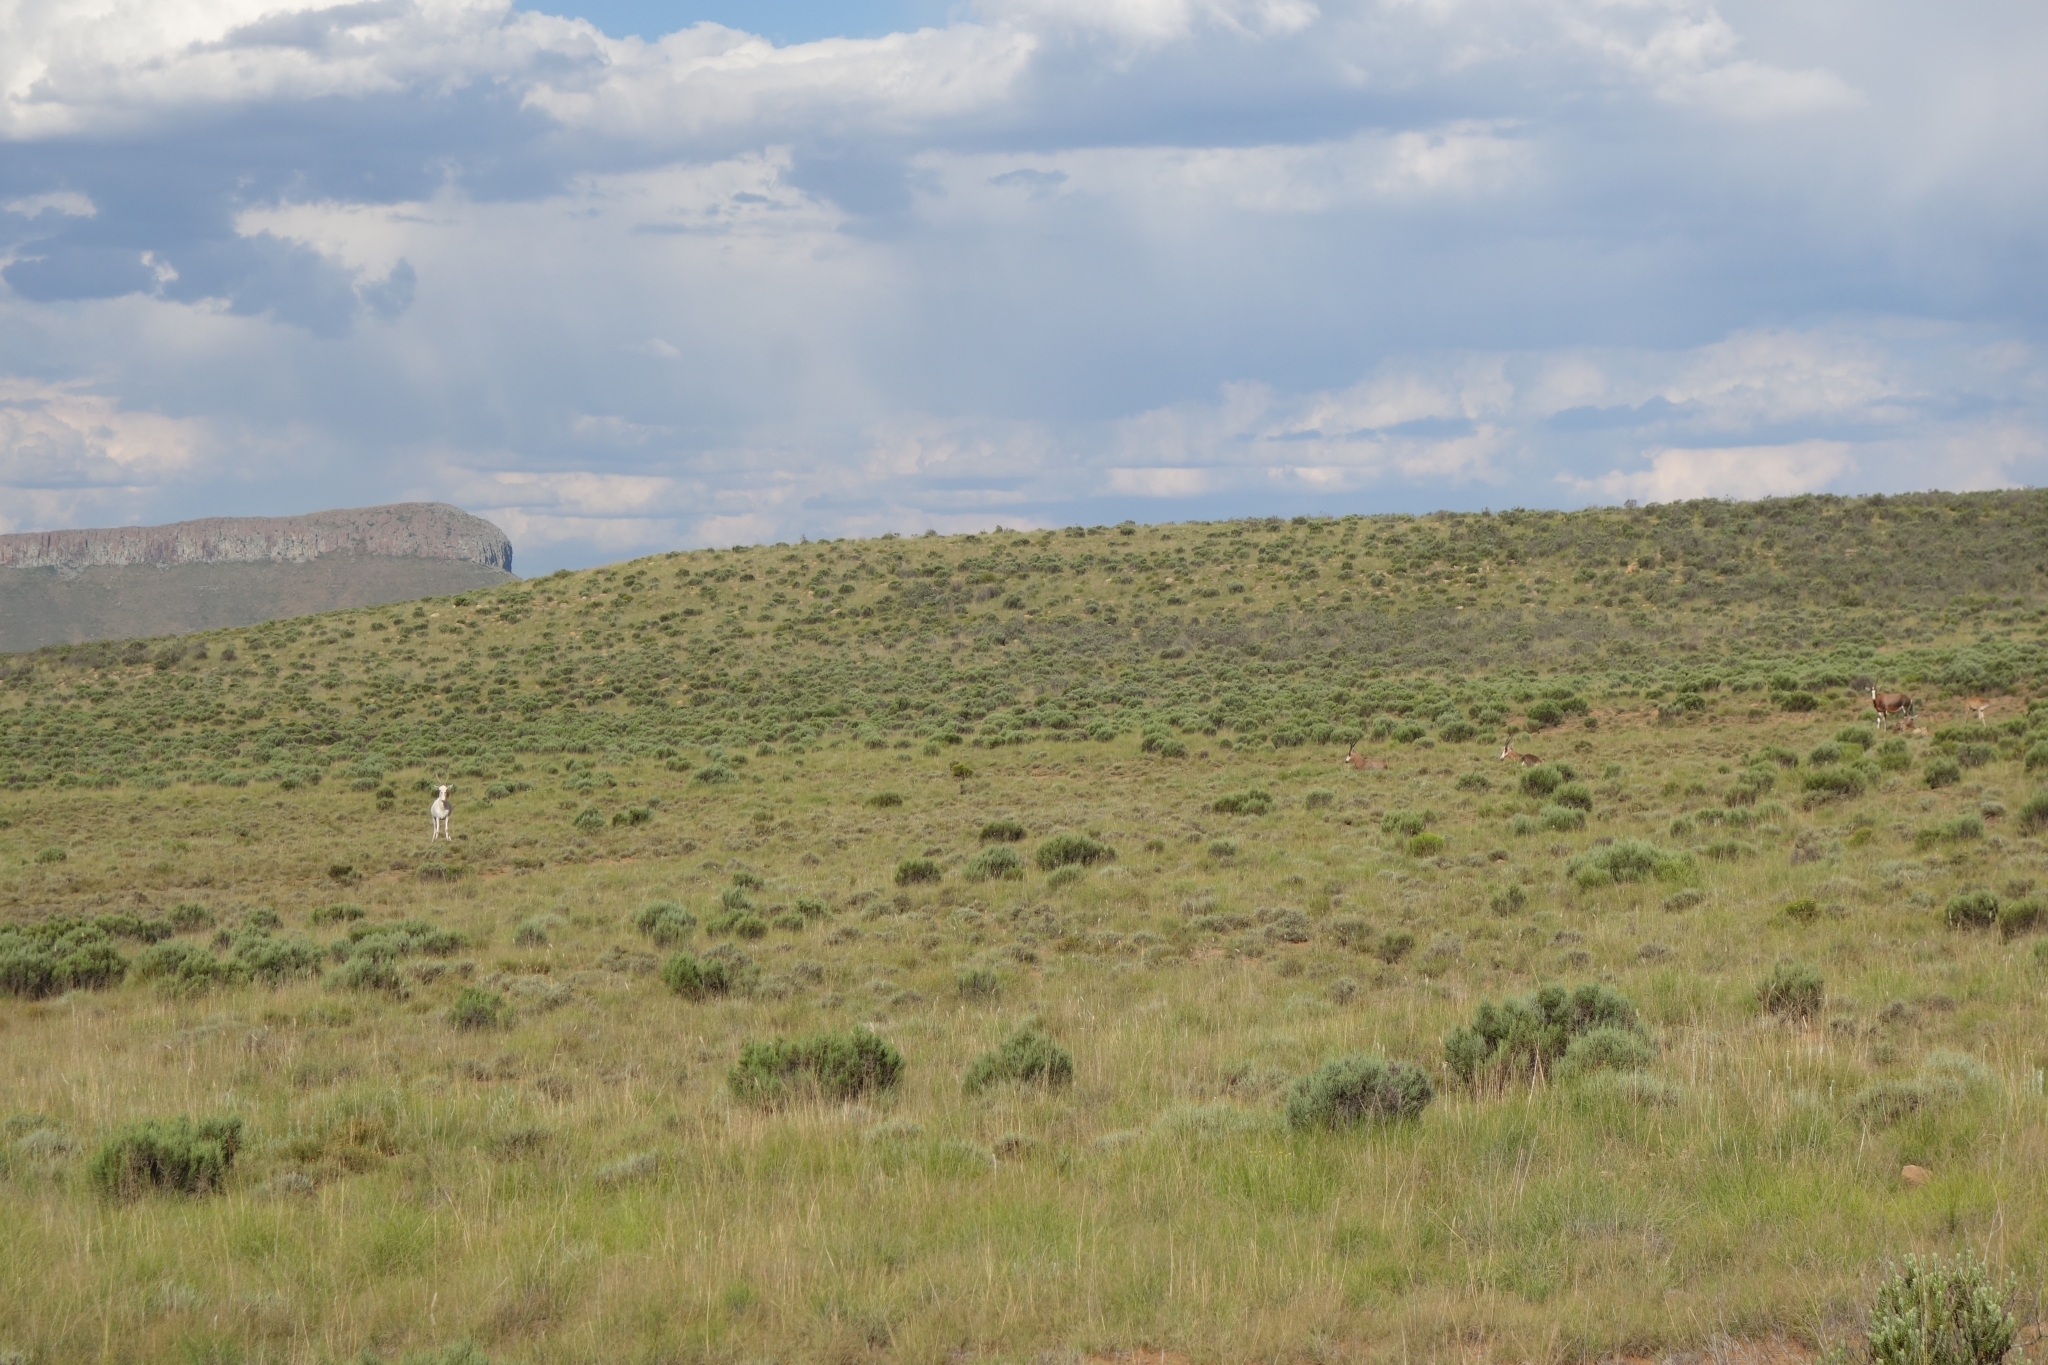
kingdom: Animalia
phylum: Chordata
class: Mammalia
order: Artiodactyla
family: Bovidae
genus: Damaliscus
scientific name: Damaliscus pygargus
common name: Bontebok
